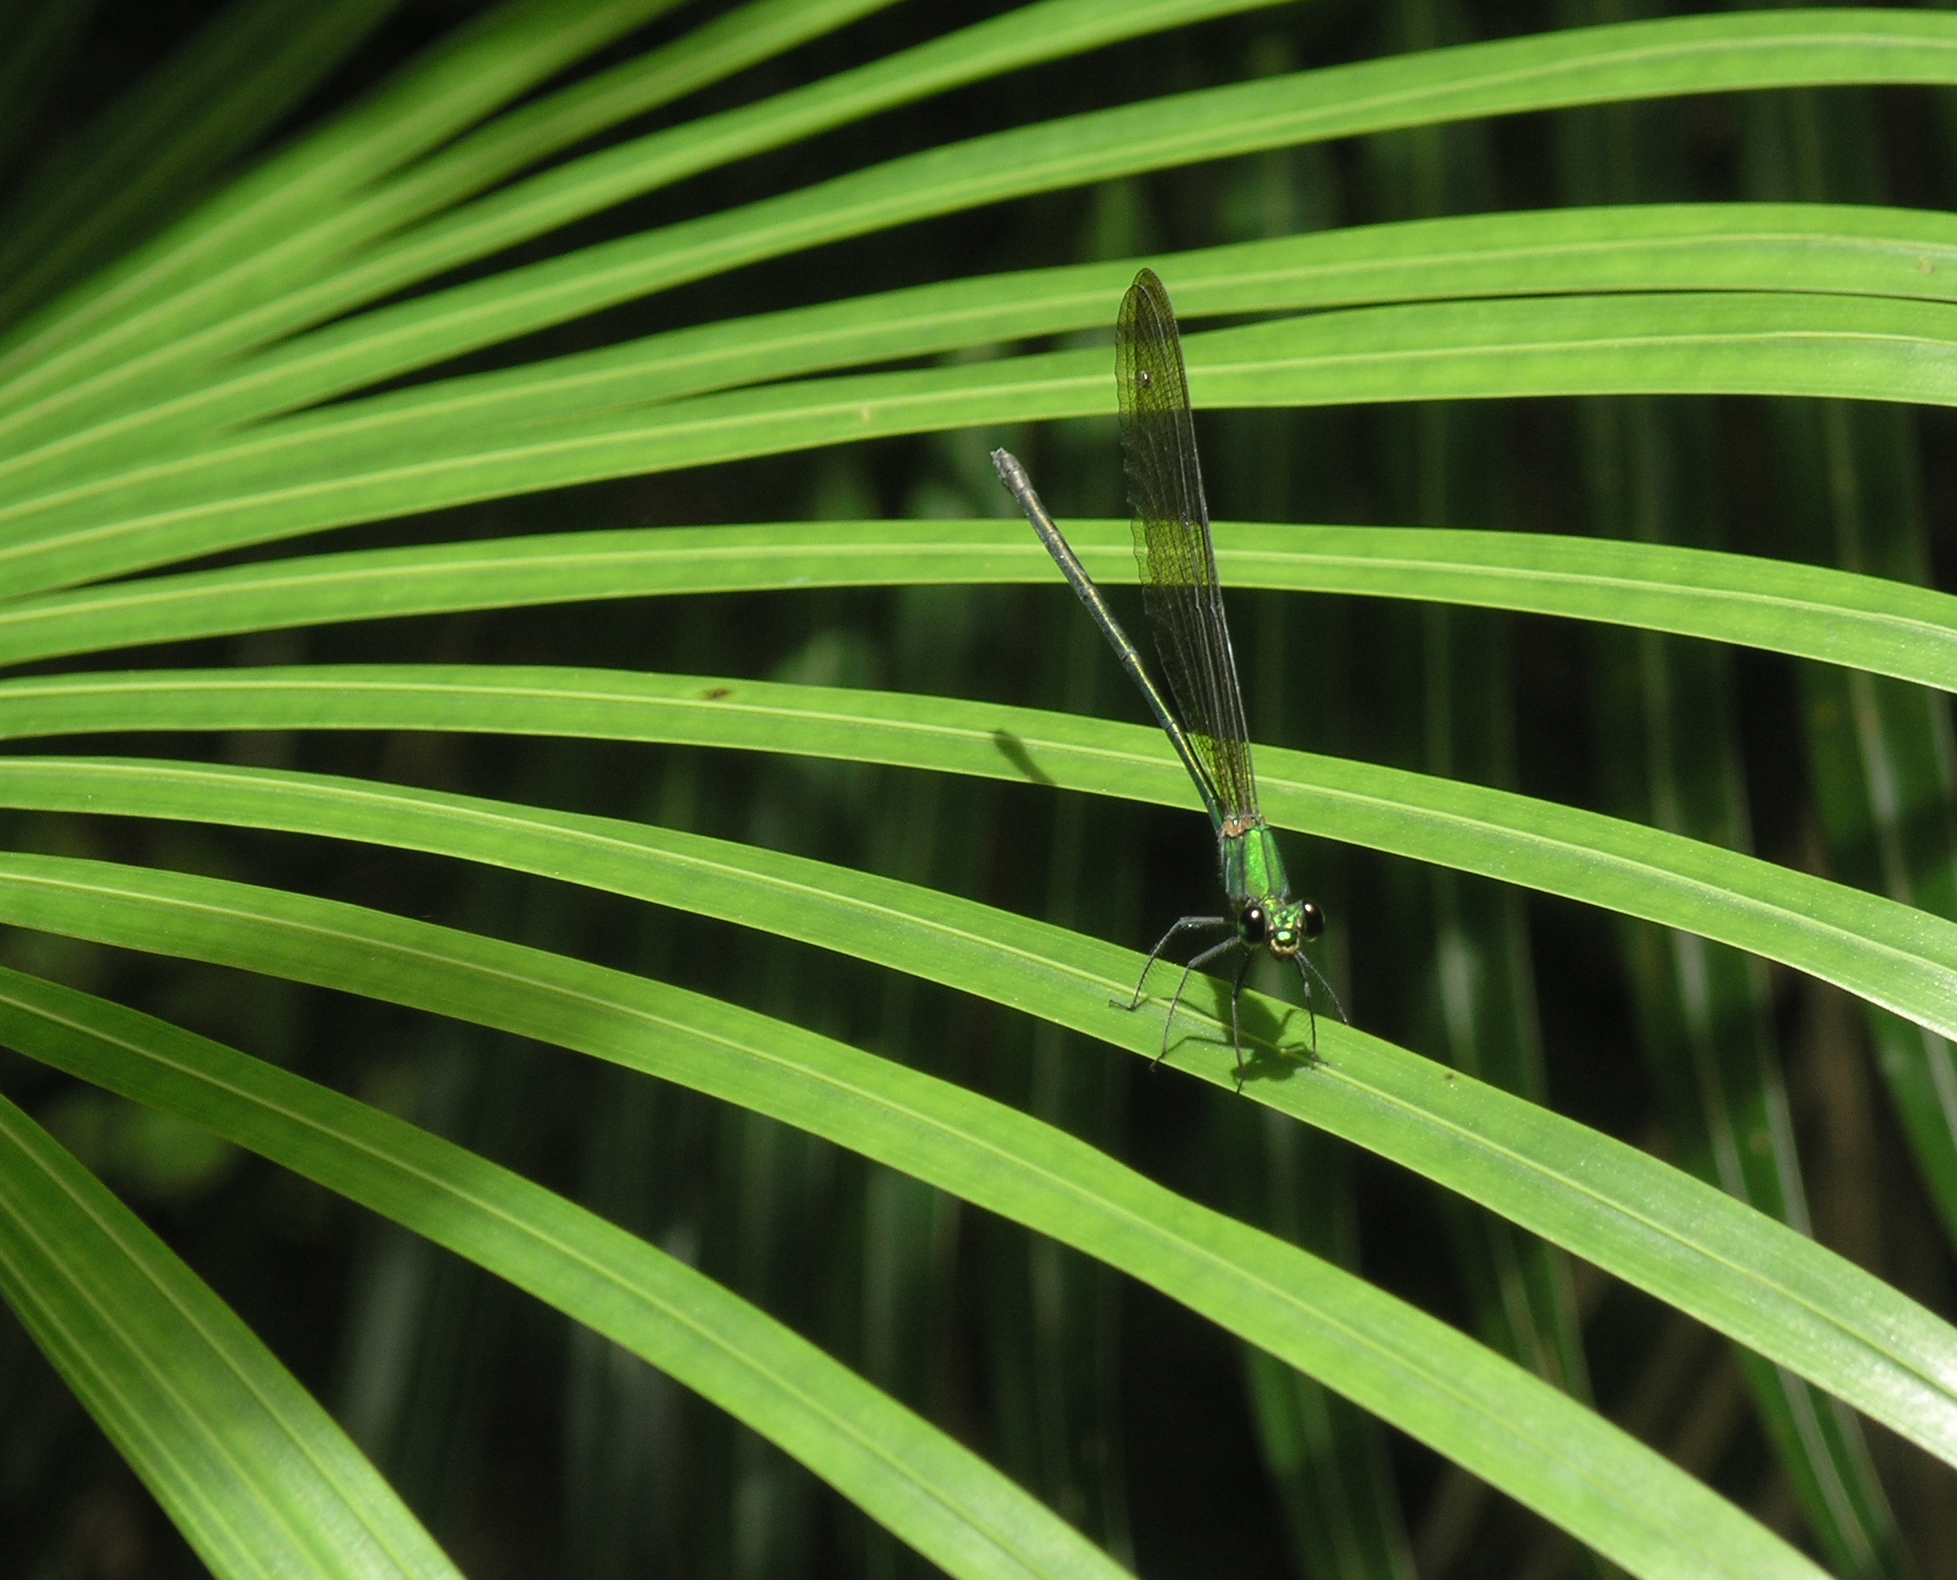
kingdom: Animalia
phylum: Arthropoda
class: Insecta
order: Odonata
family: Calopterygidae
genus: Vestalis
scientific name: Vestalis gracilis
